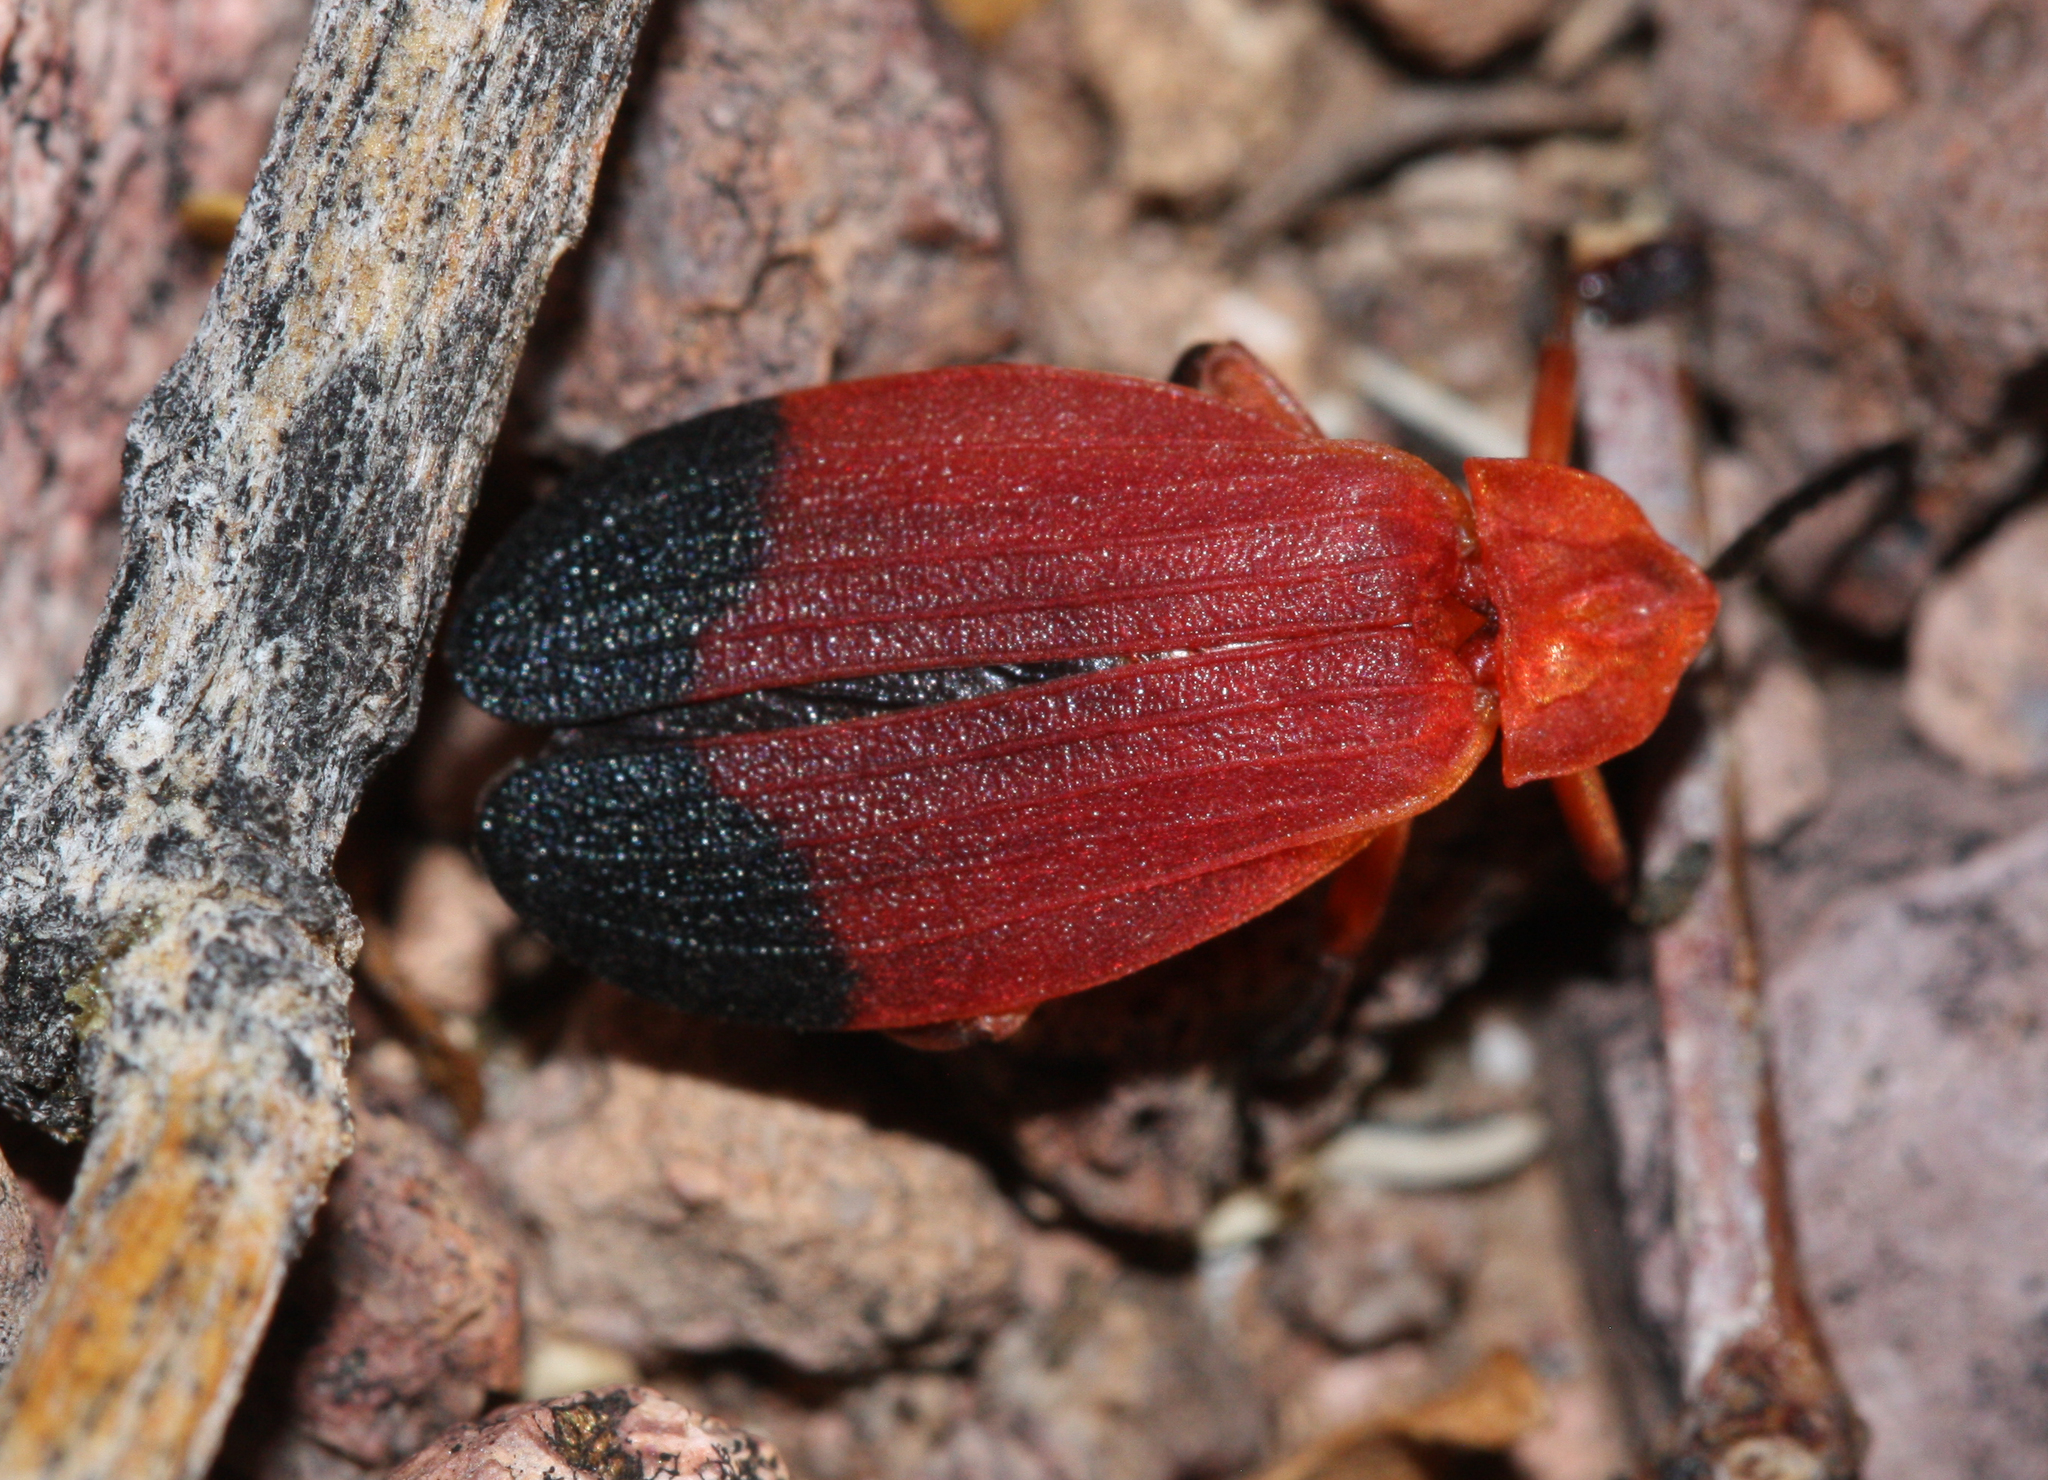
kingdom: Animalia
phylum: Arthropoda
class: Insecta
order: Coleoptera
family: Lycidae
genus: Lycus
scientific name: Lycus sanguineus
